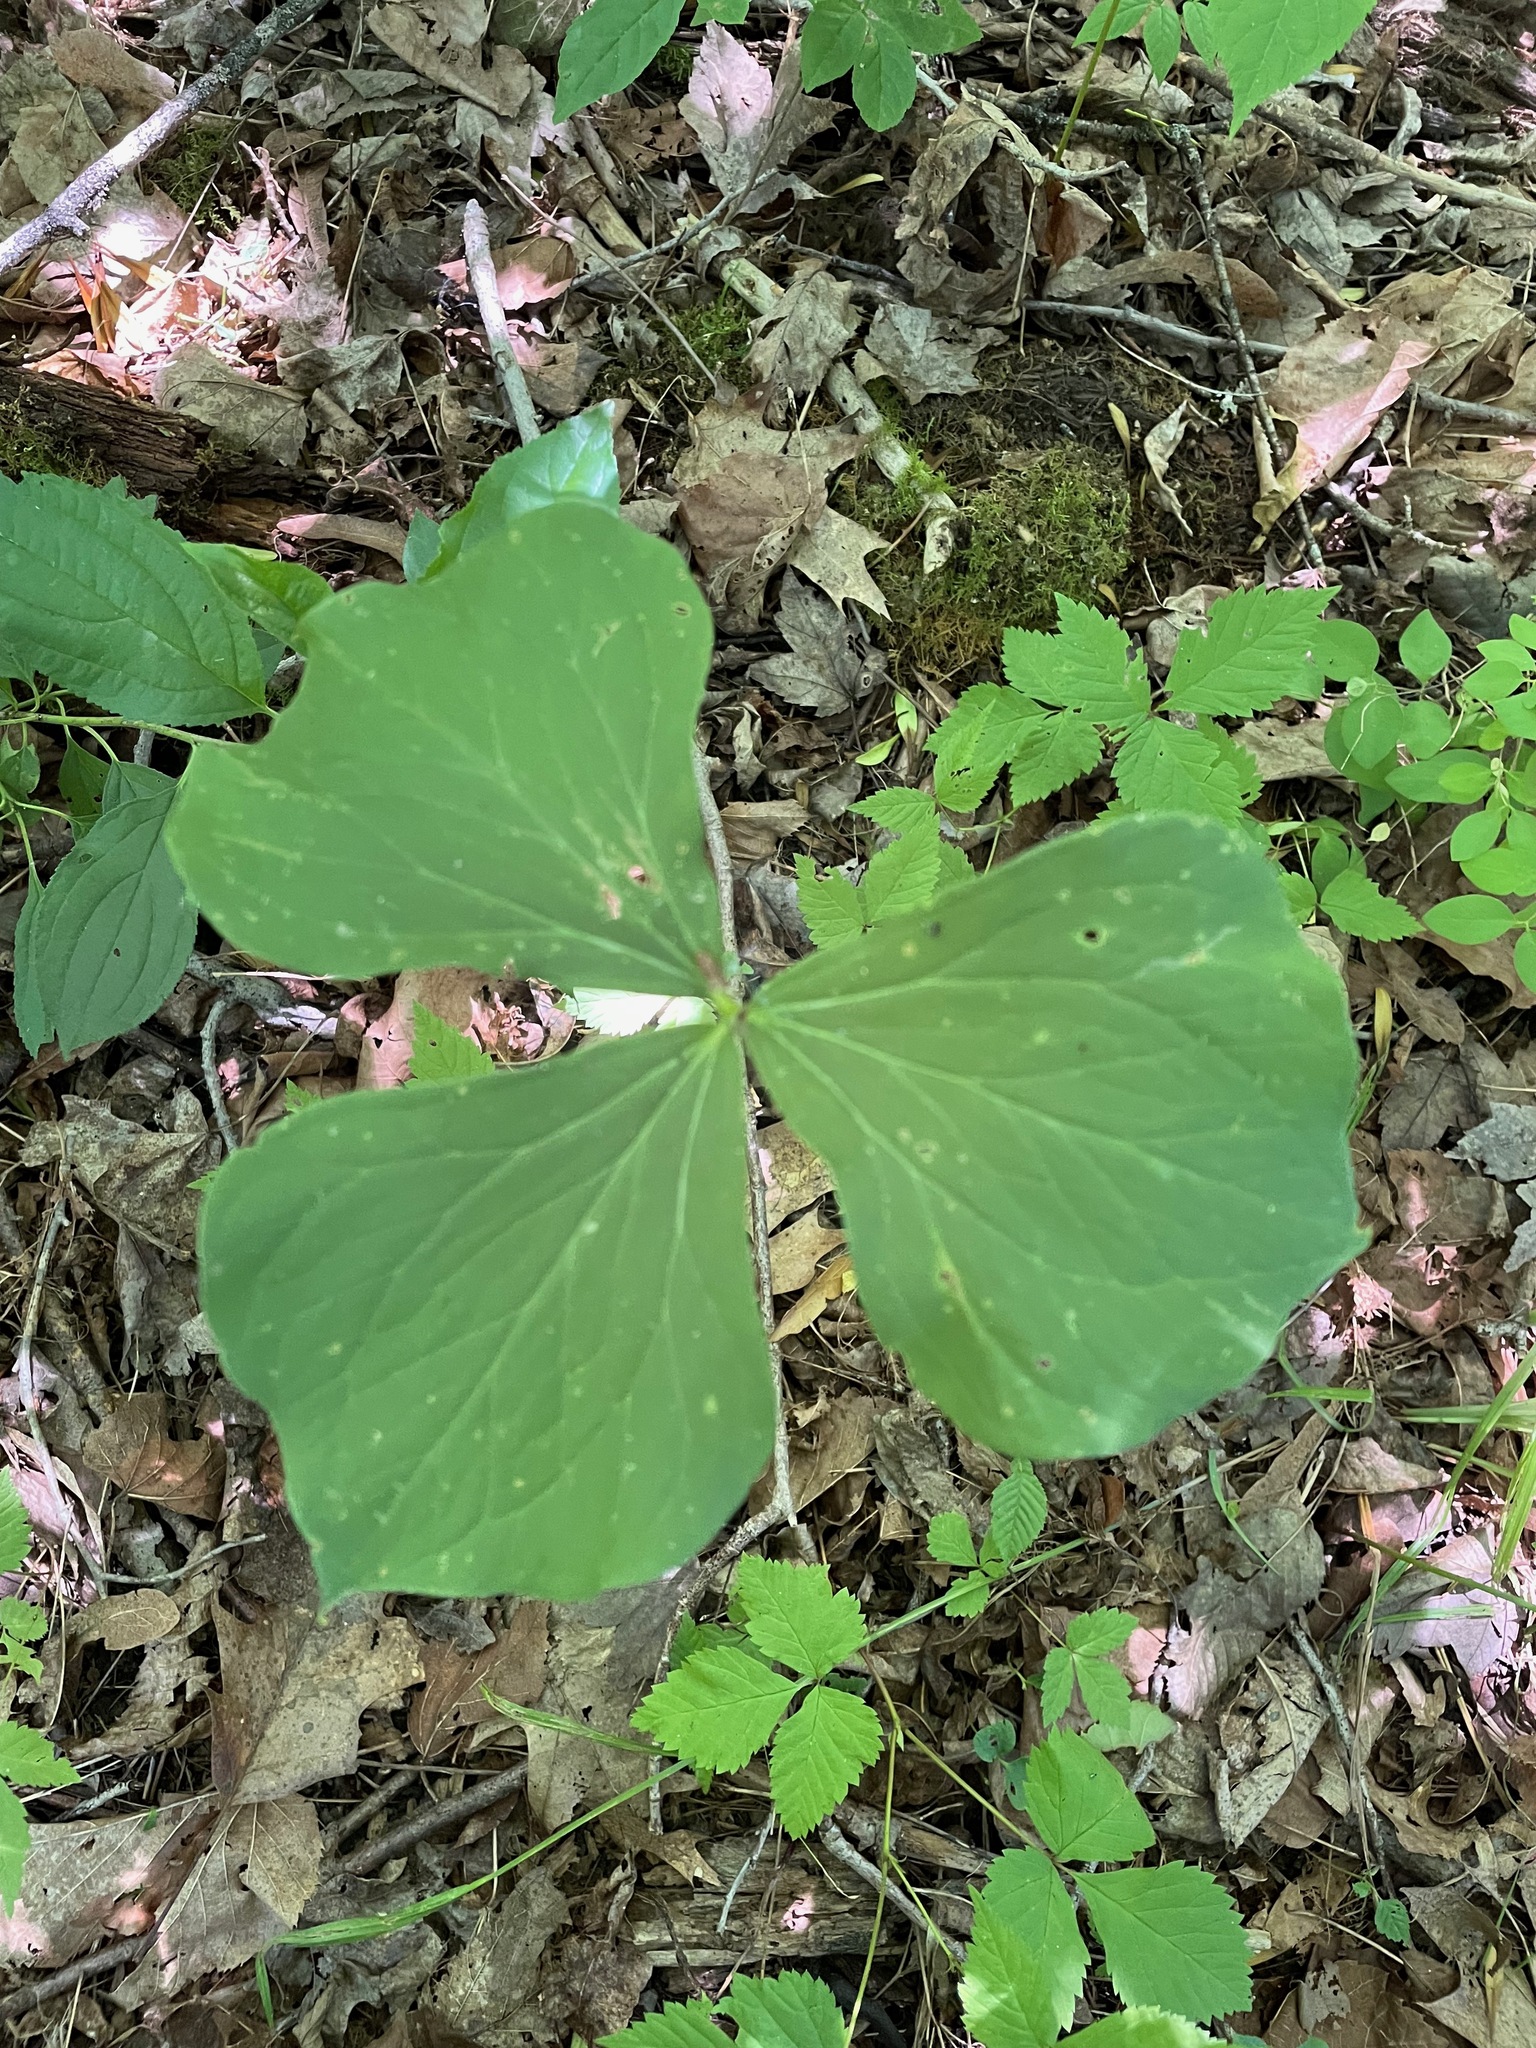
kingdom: Plantae
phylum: Tracheophyta
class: Liliopsida
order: Liliales
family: Melanthiaceae
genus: Trillium
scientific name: Trillium cernuum
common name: Nodding trillium
